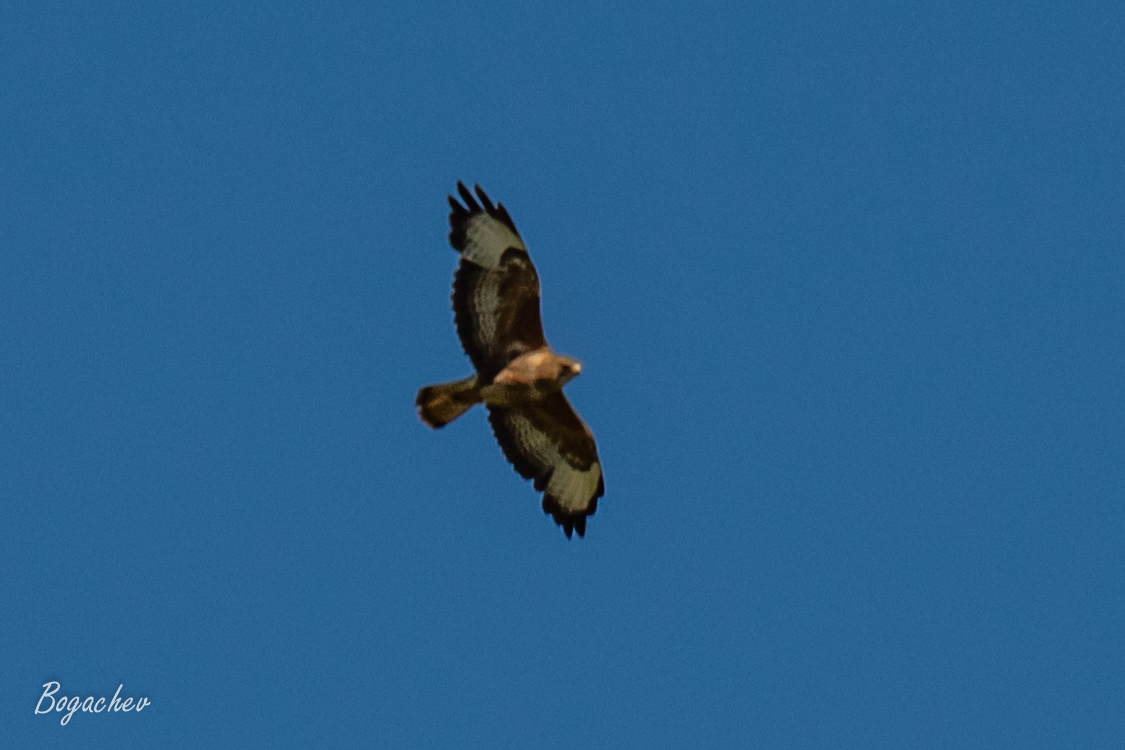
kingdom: Animalia
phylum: Chordata
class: Aves
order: Accipitriformes
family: Accipitridae
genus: Buteo
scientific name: Buteo buteo
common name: Common buzzard
